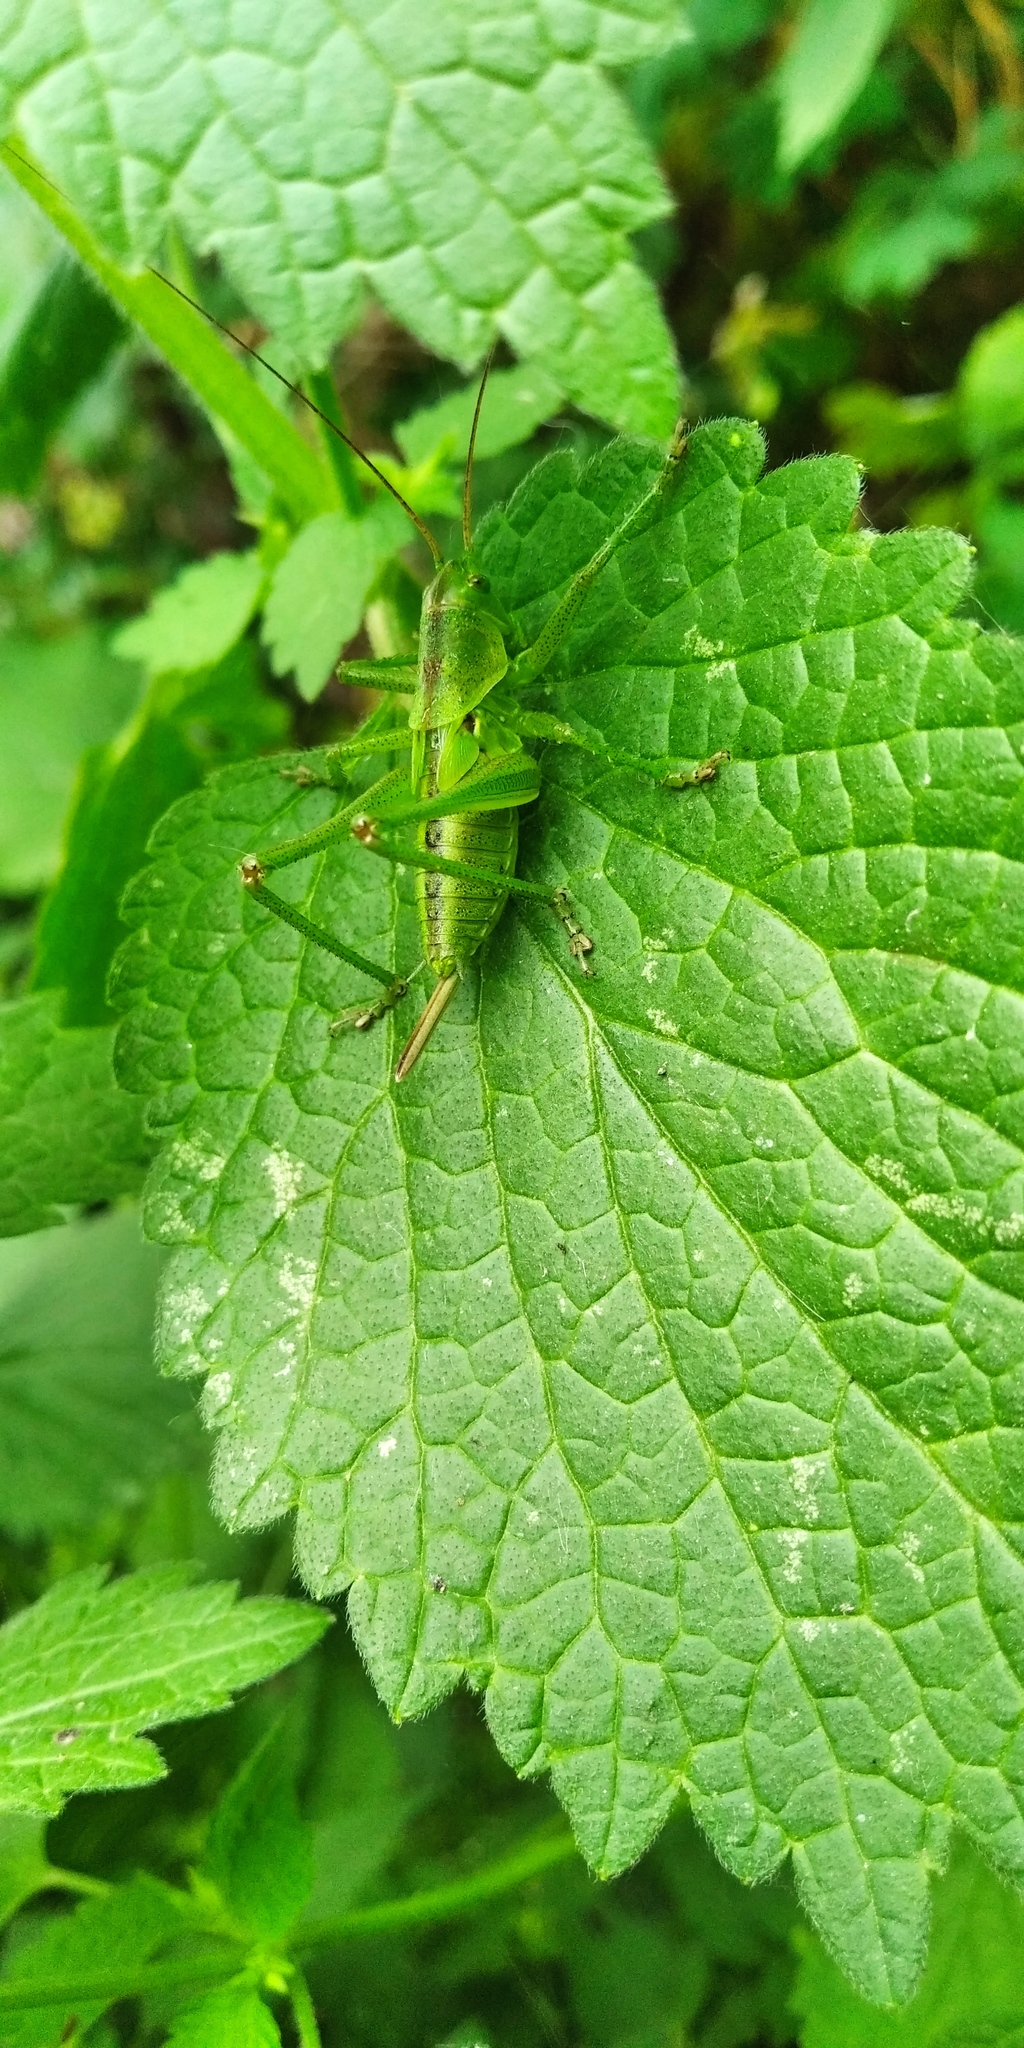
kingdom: Animalia
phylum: Arthropoda
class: Insecta
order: Orthoptera
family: Tettigoniidae
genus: Tettigonia
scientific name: Tettigonia viridissima
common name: Great green bush-cricket
